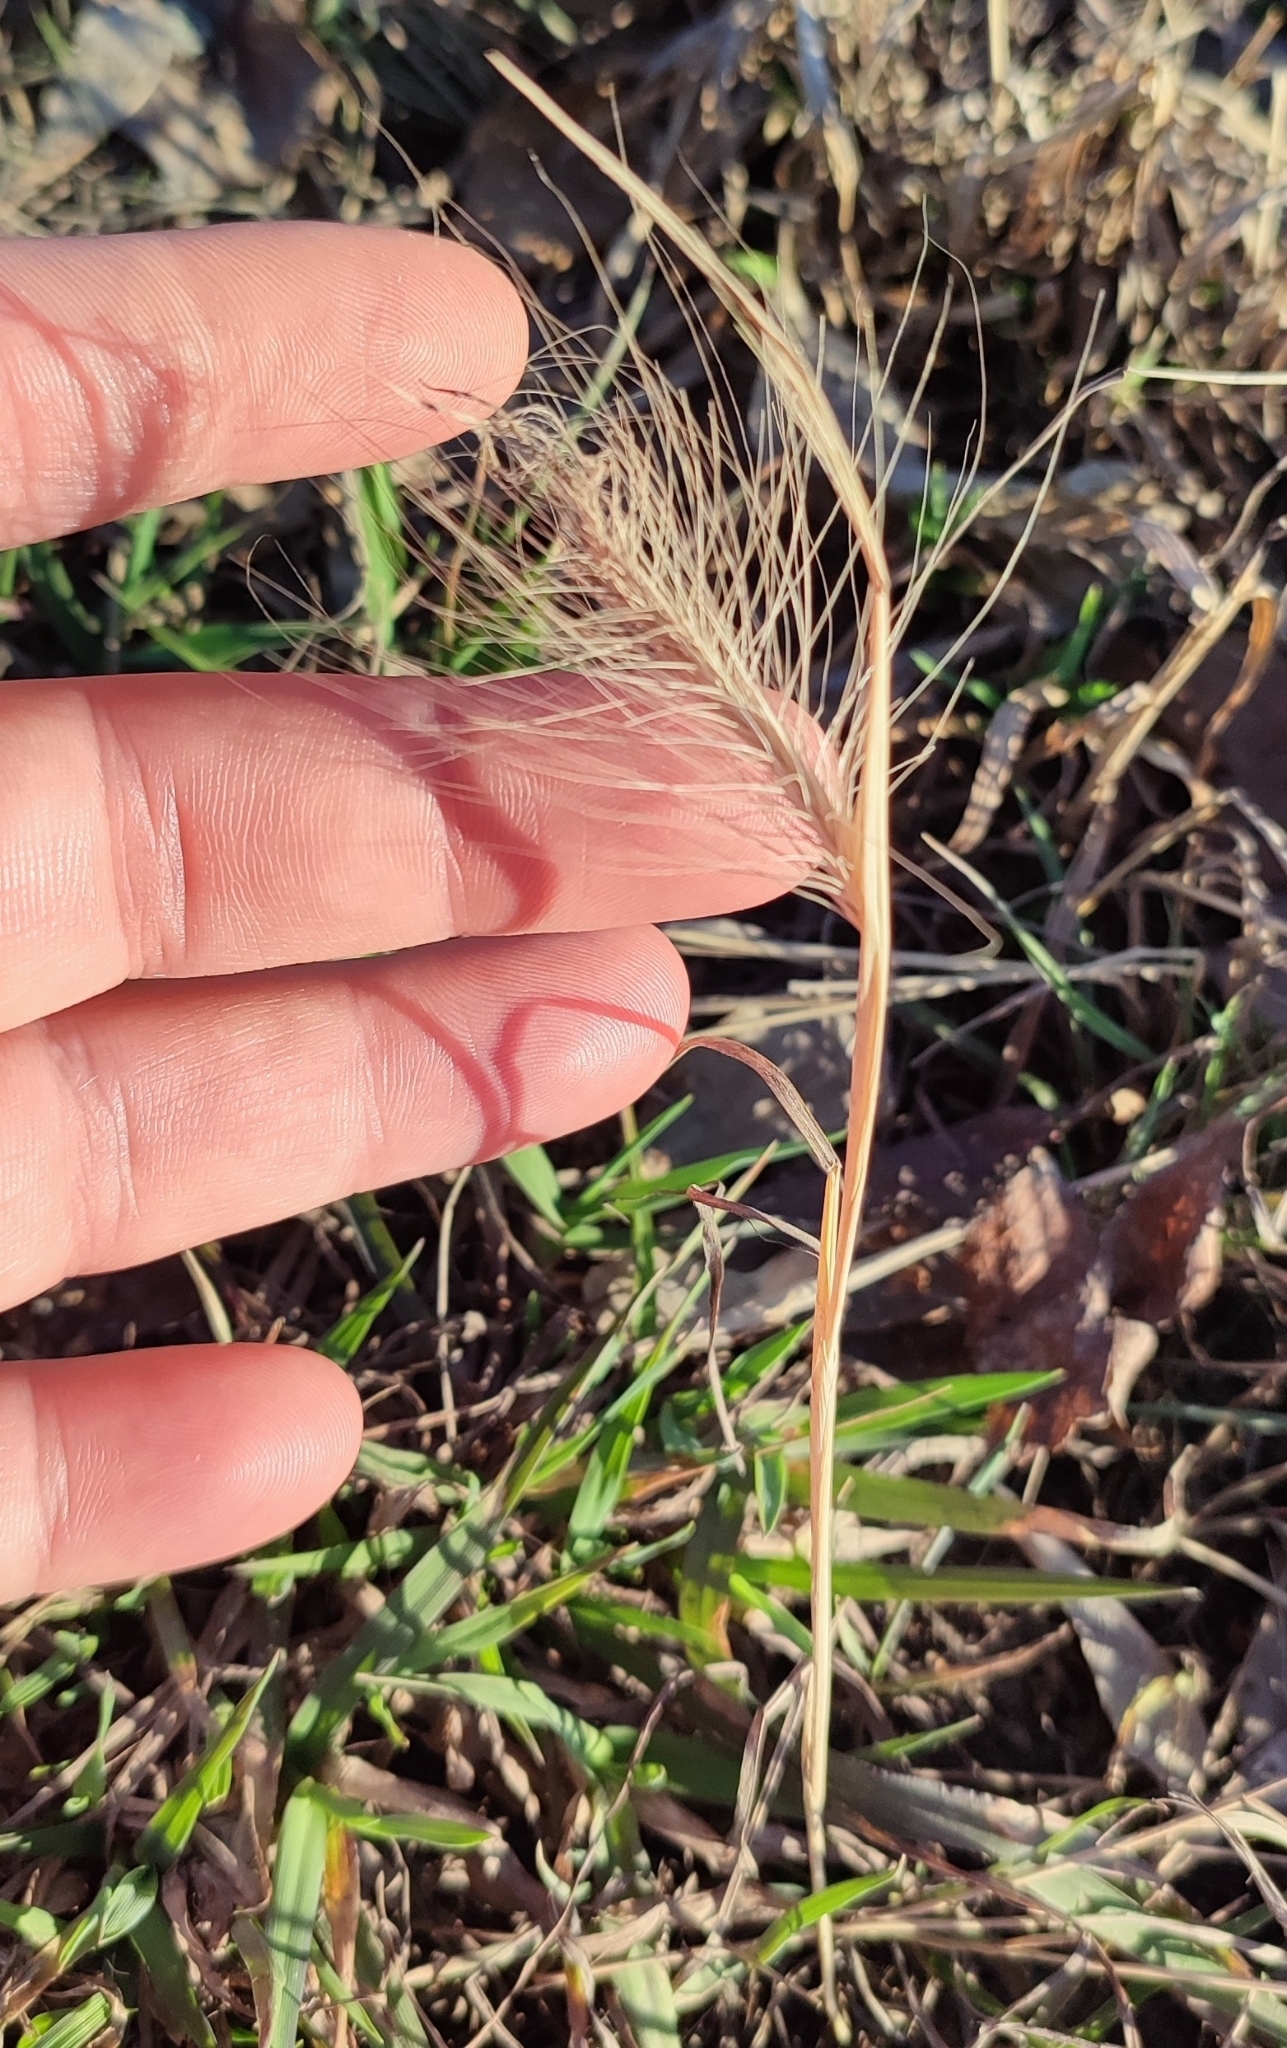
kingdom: Plantae
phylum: Tracheophyta
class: Liliopsida
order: Poales
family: Poaceae
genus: Hordeum
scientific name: Hordeum jubatum
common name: Foxtail barley
